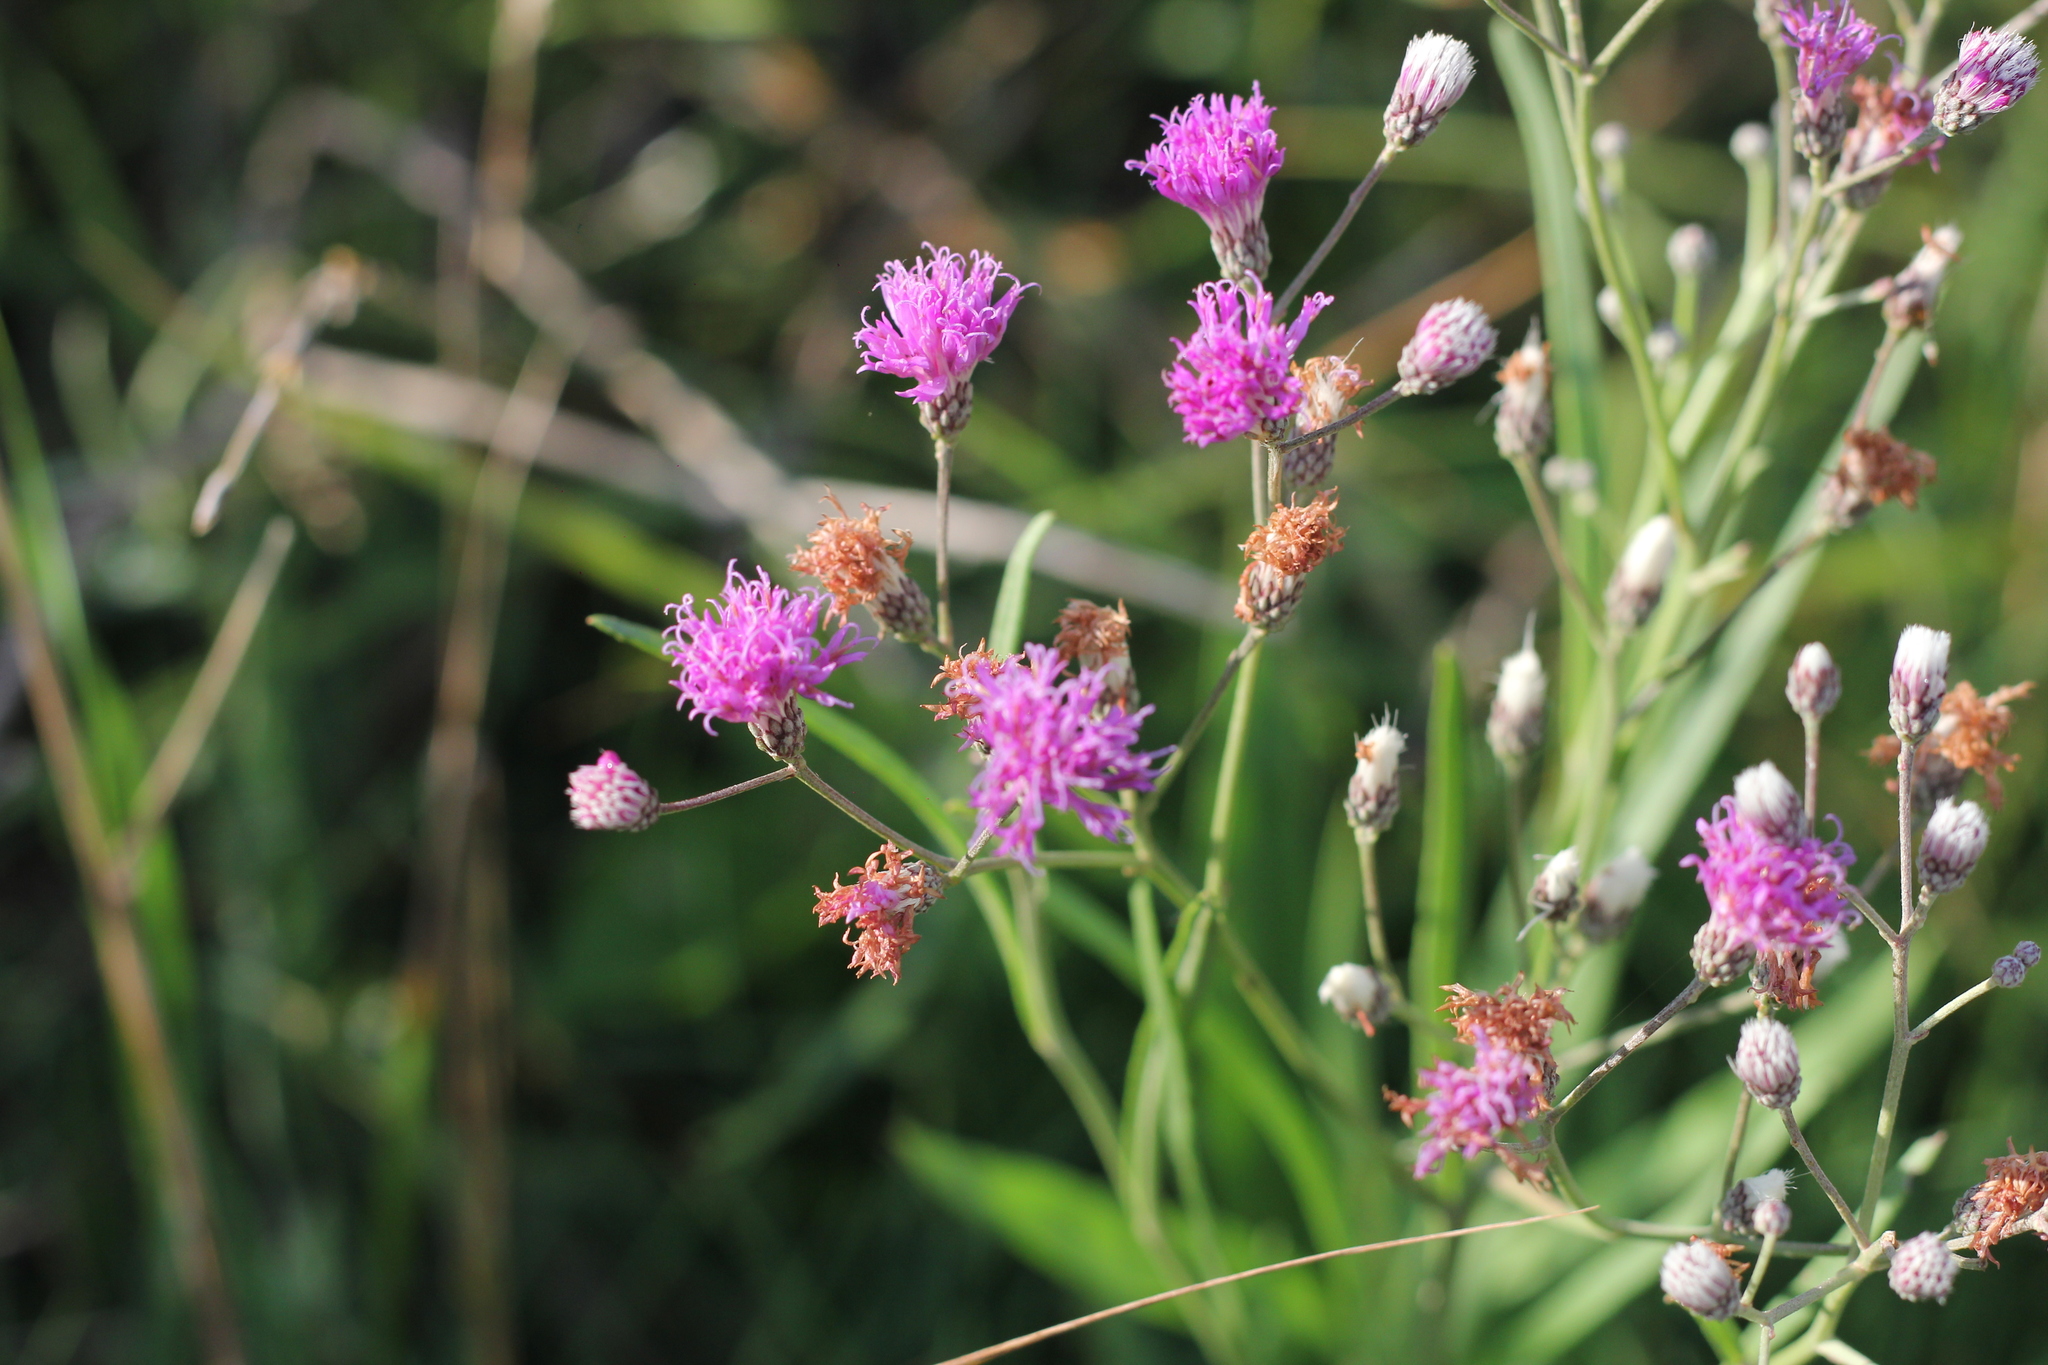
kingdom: Plantae
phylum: Tracheophyta
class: Magnoliopsida
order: Asterales
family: Asteraceae
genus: Vernonia
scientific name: Vernonia incana
